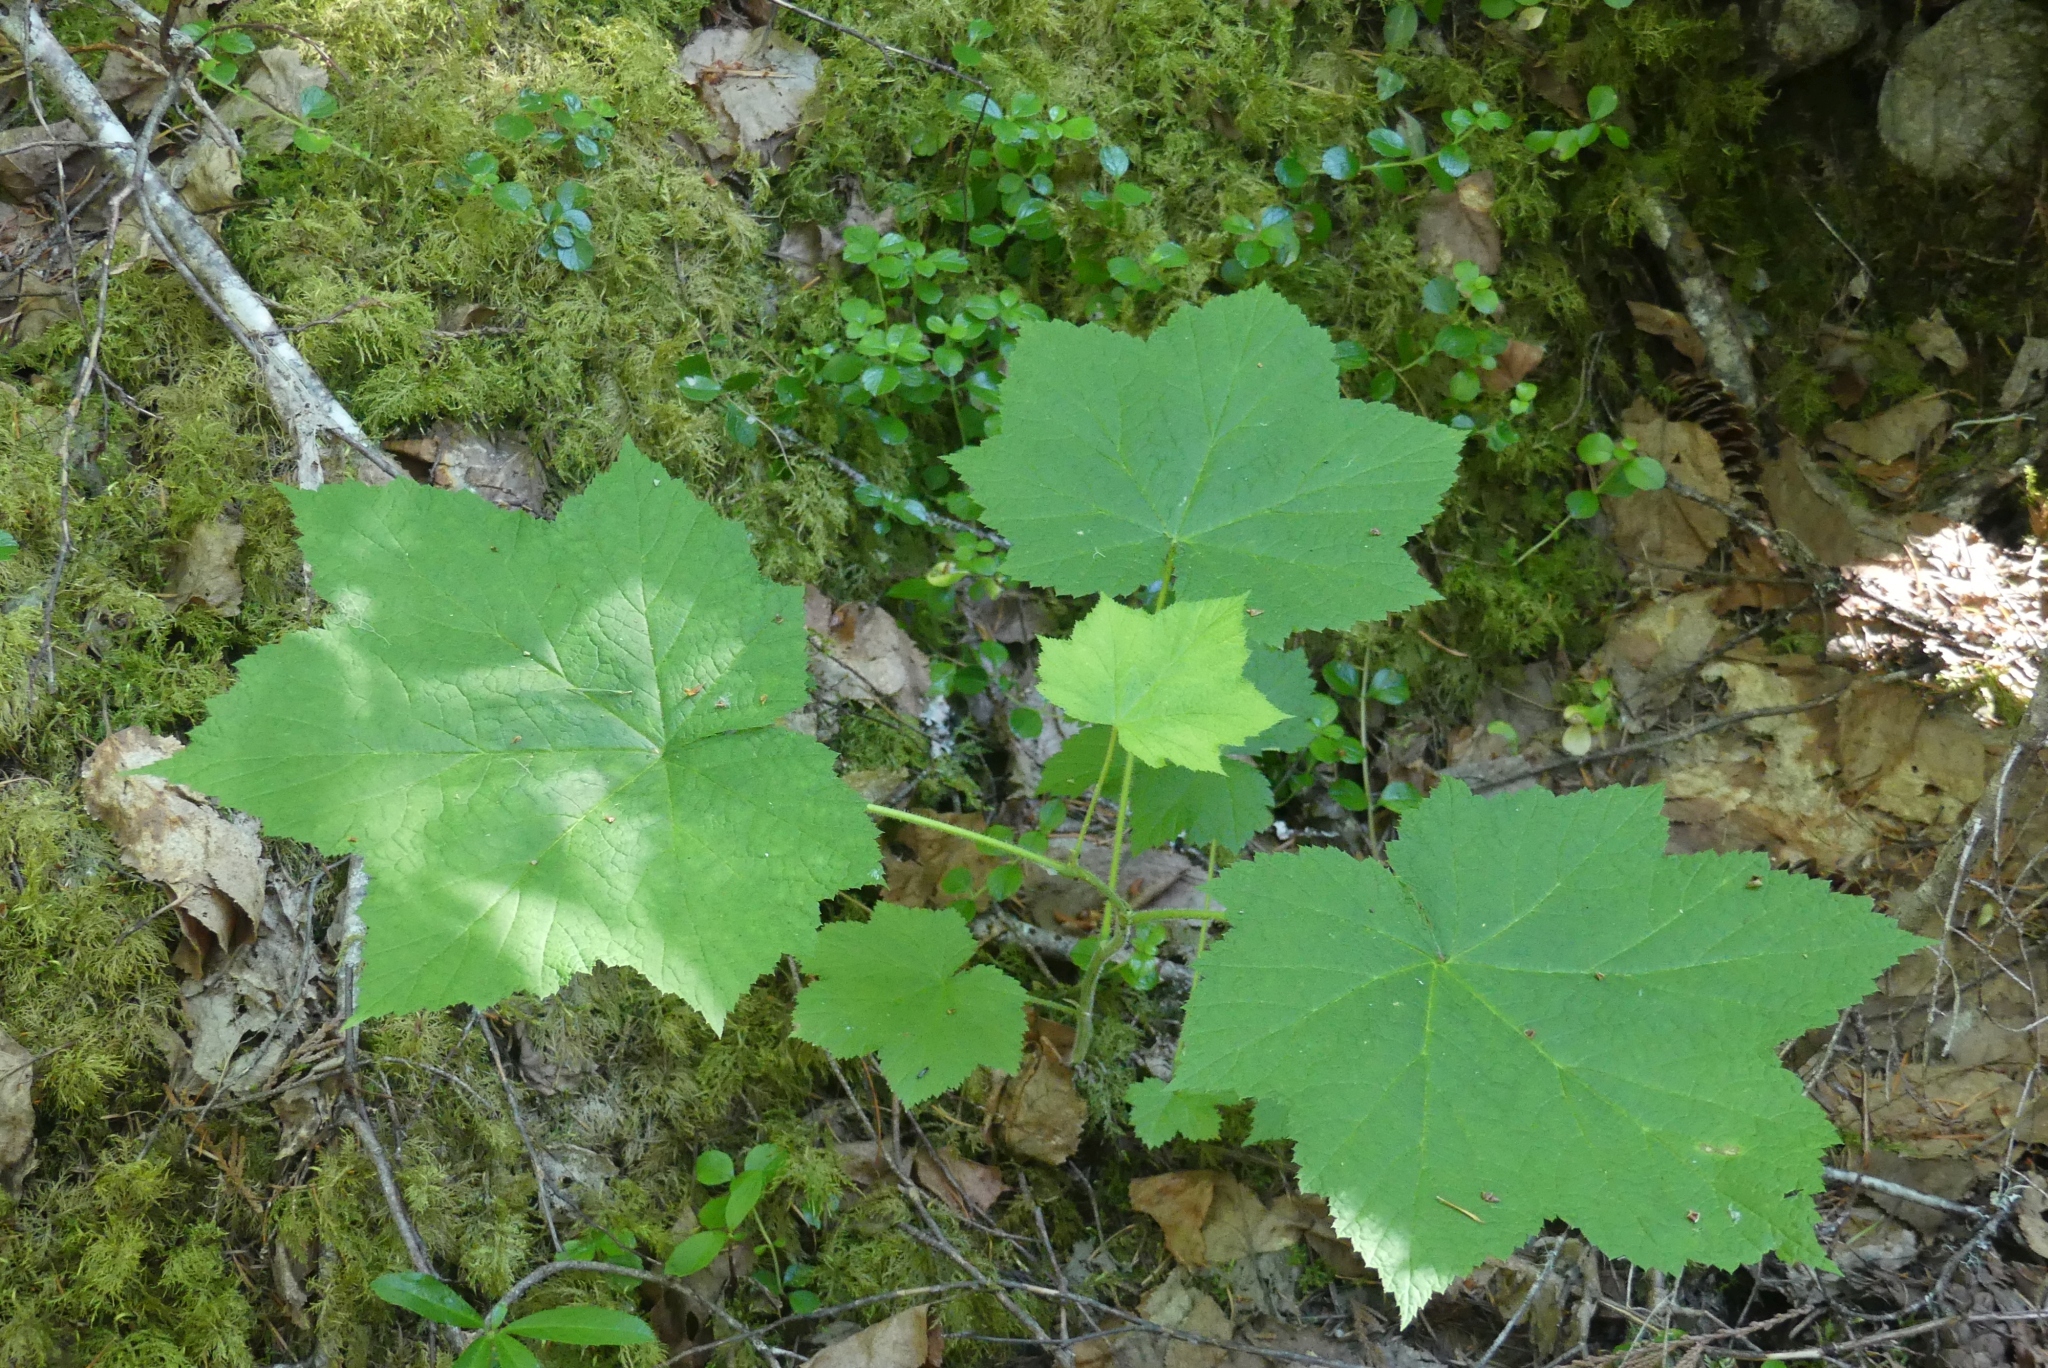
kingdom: Plantae
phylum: Tracheophyta
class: Magnoliopsida
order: Rosales
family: Rosaceae
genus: Rubus
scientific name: Rubus parviflorus
